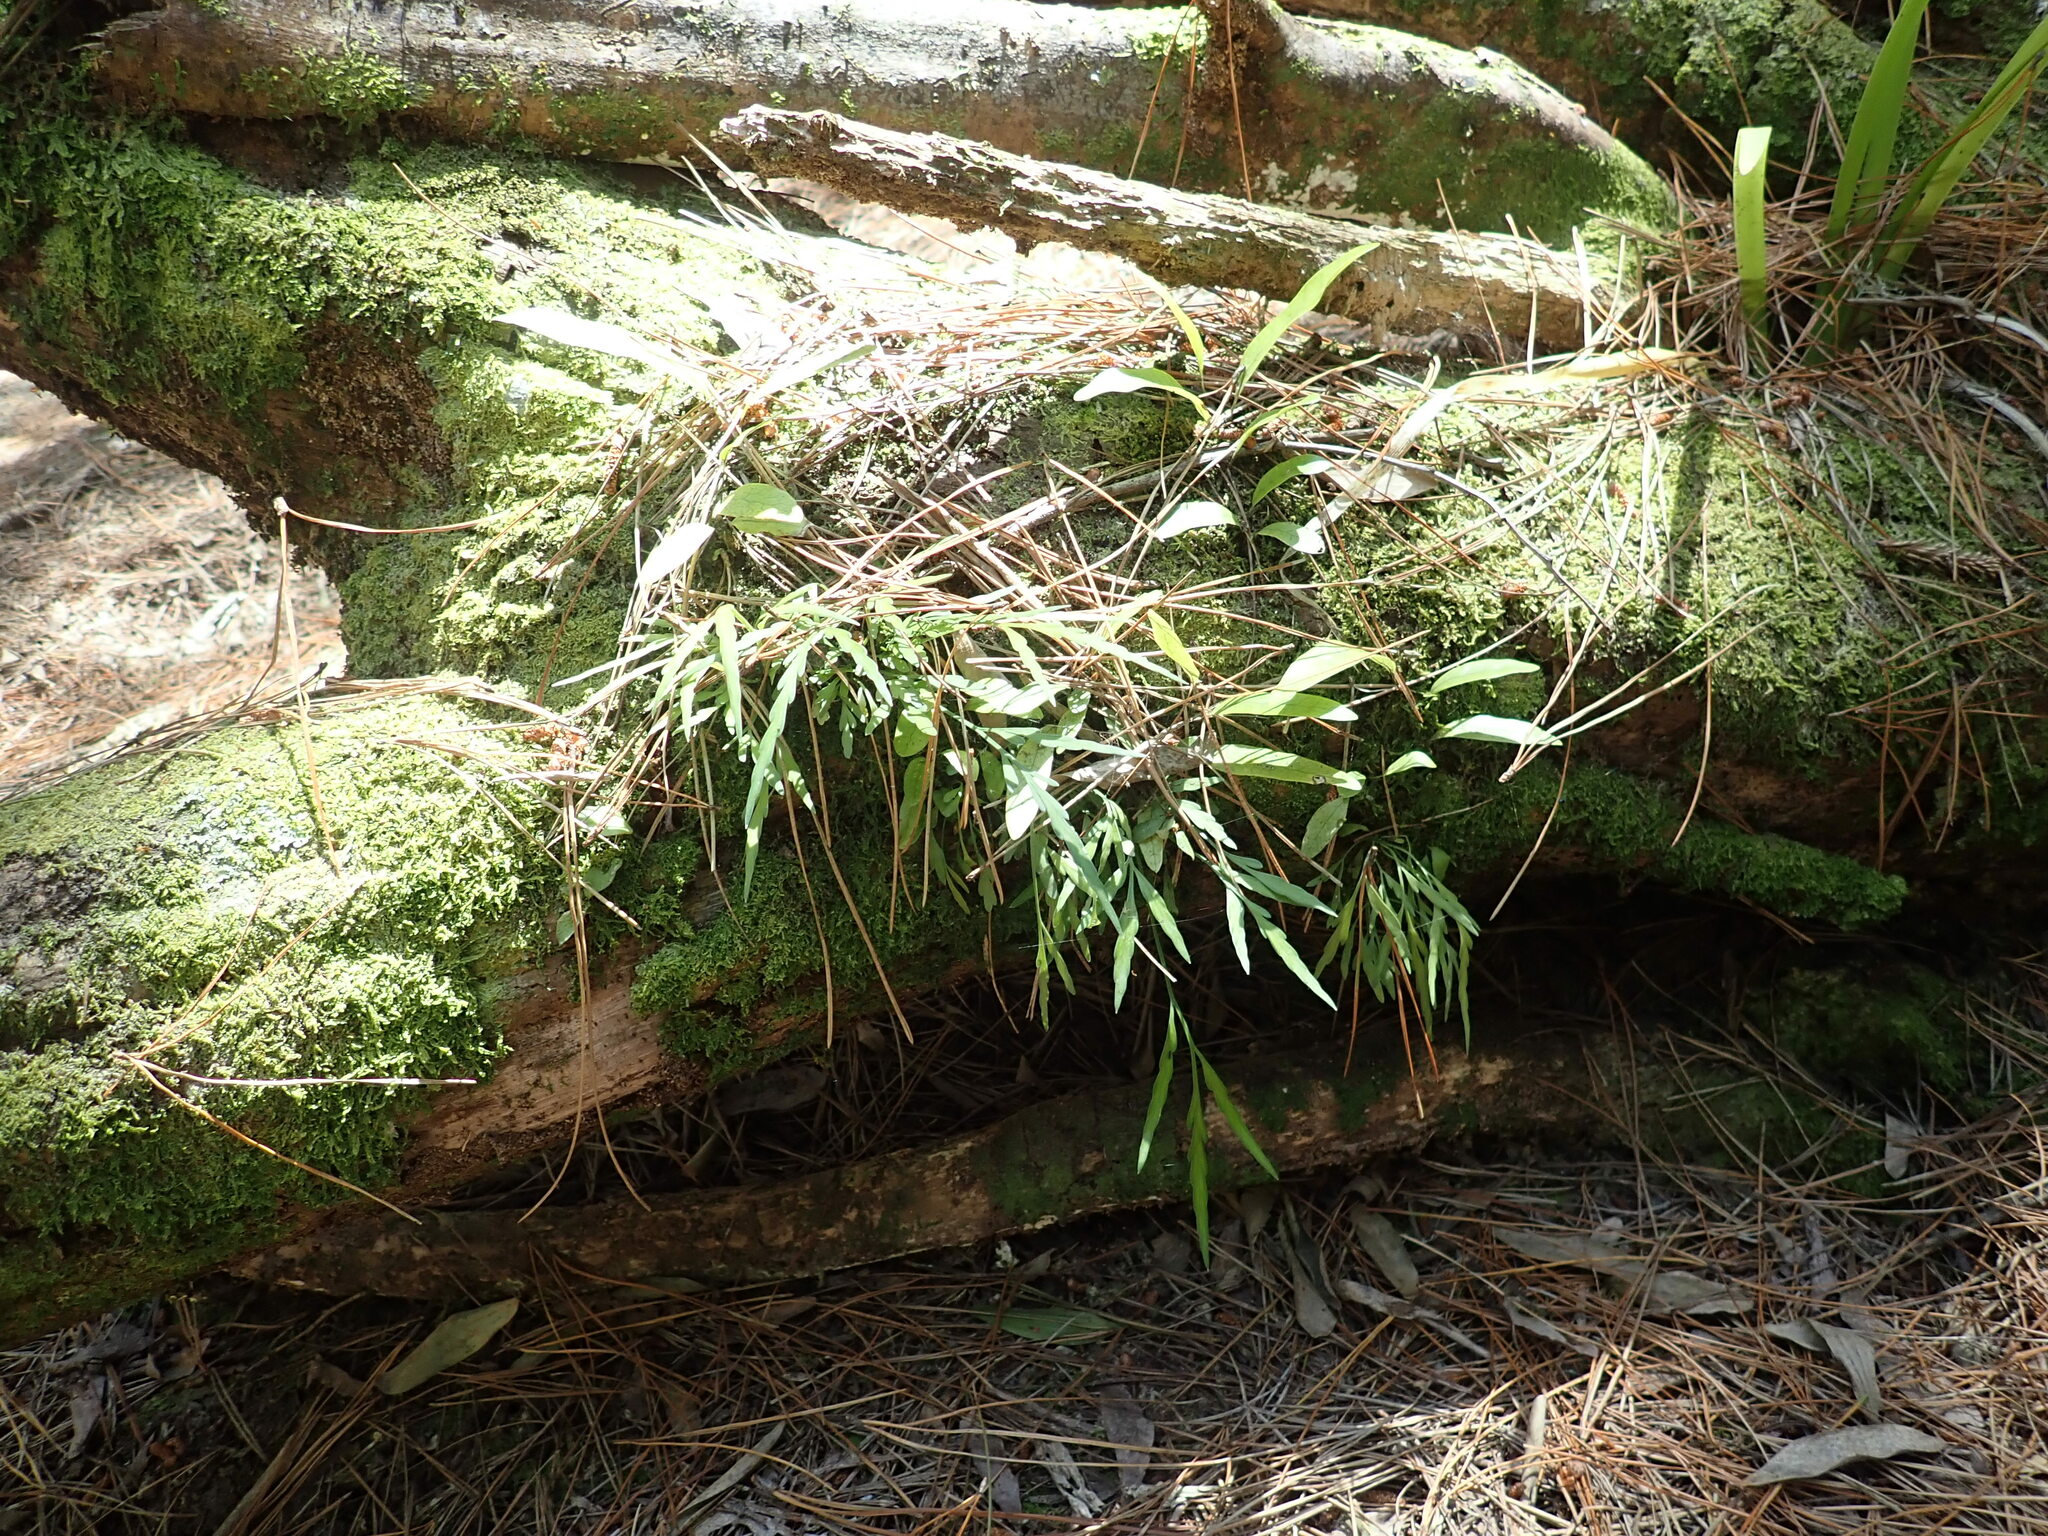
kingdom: Plantae
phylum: Tracheophyta
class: Polypodiopsida
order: Polypodiales
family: Polypodiaceae
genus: Lecanopteris
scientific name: Lecanopteris pustulata
